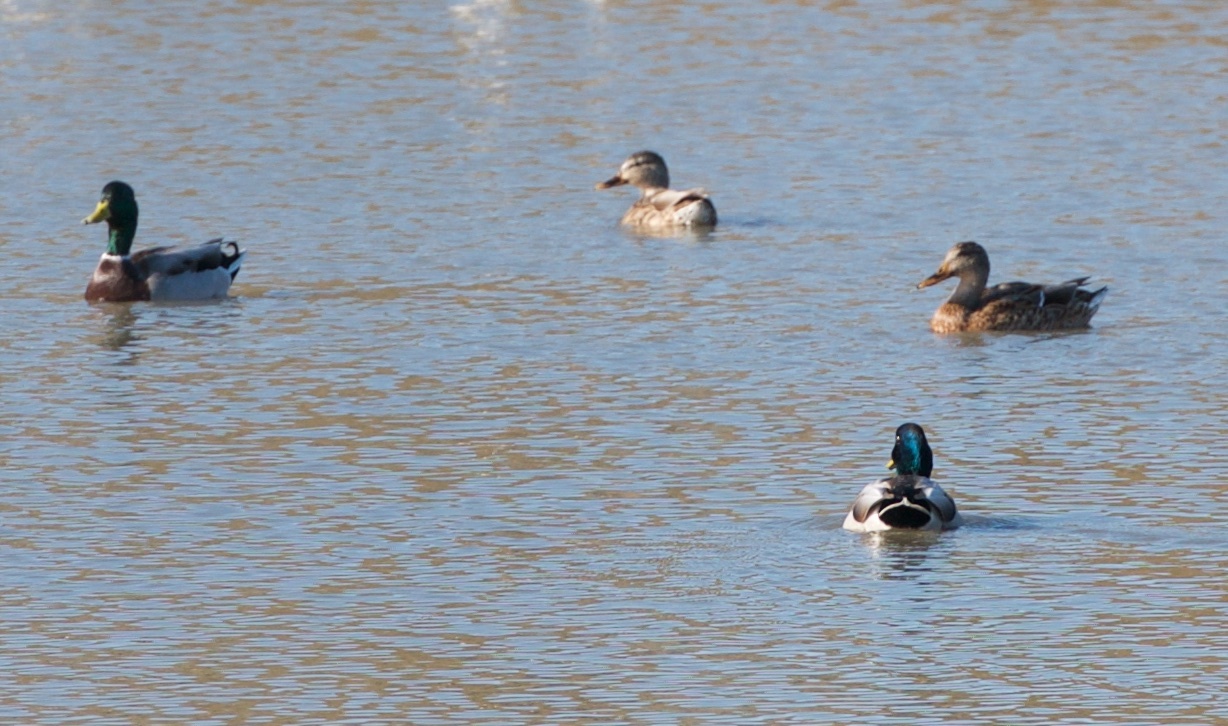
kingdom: Animalia
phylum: Chordata
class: Aves
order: Anseriformes
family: Anatidae
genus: Anas
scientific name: Anas platyrhynchos
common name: Mallard
